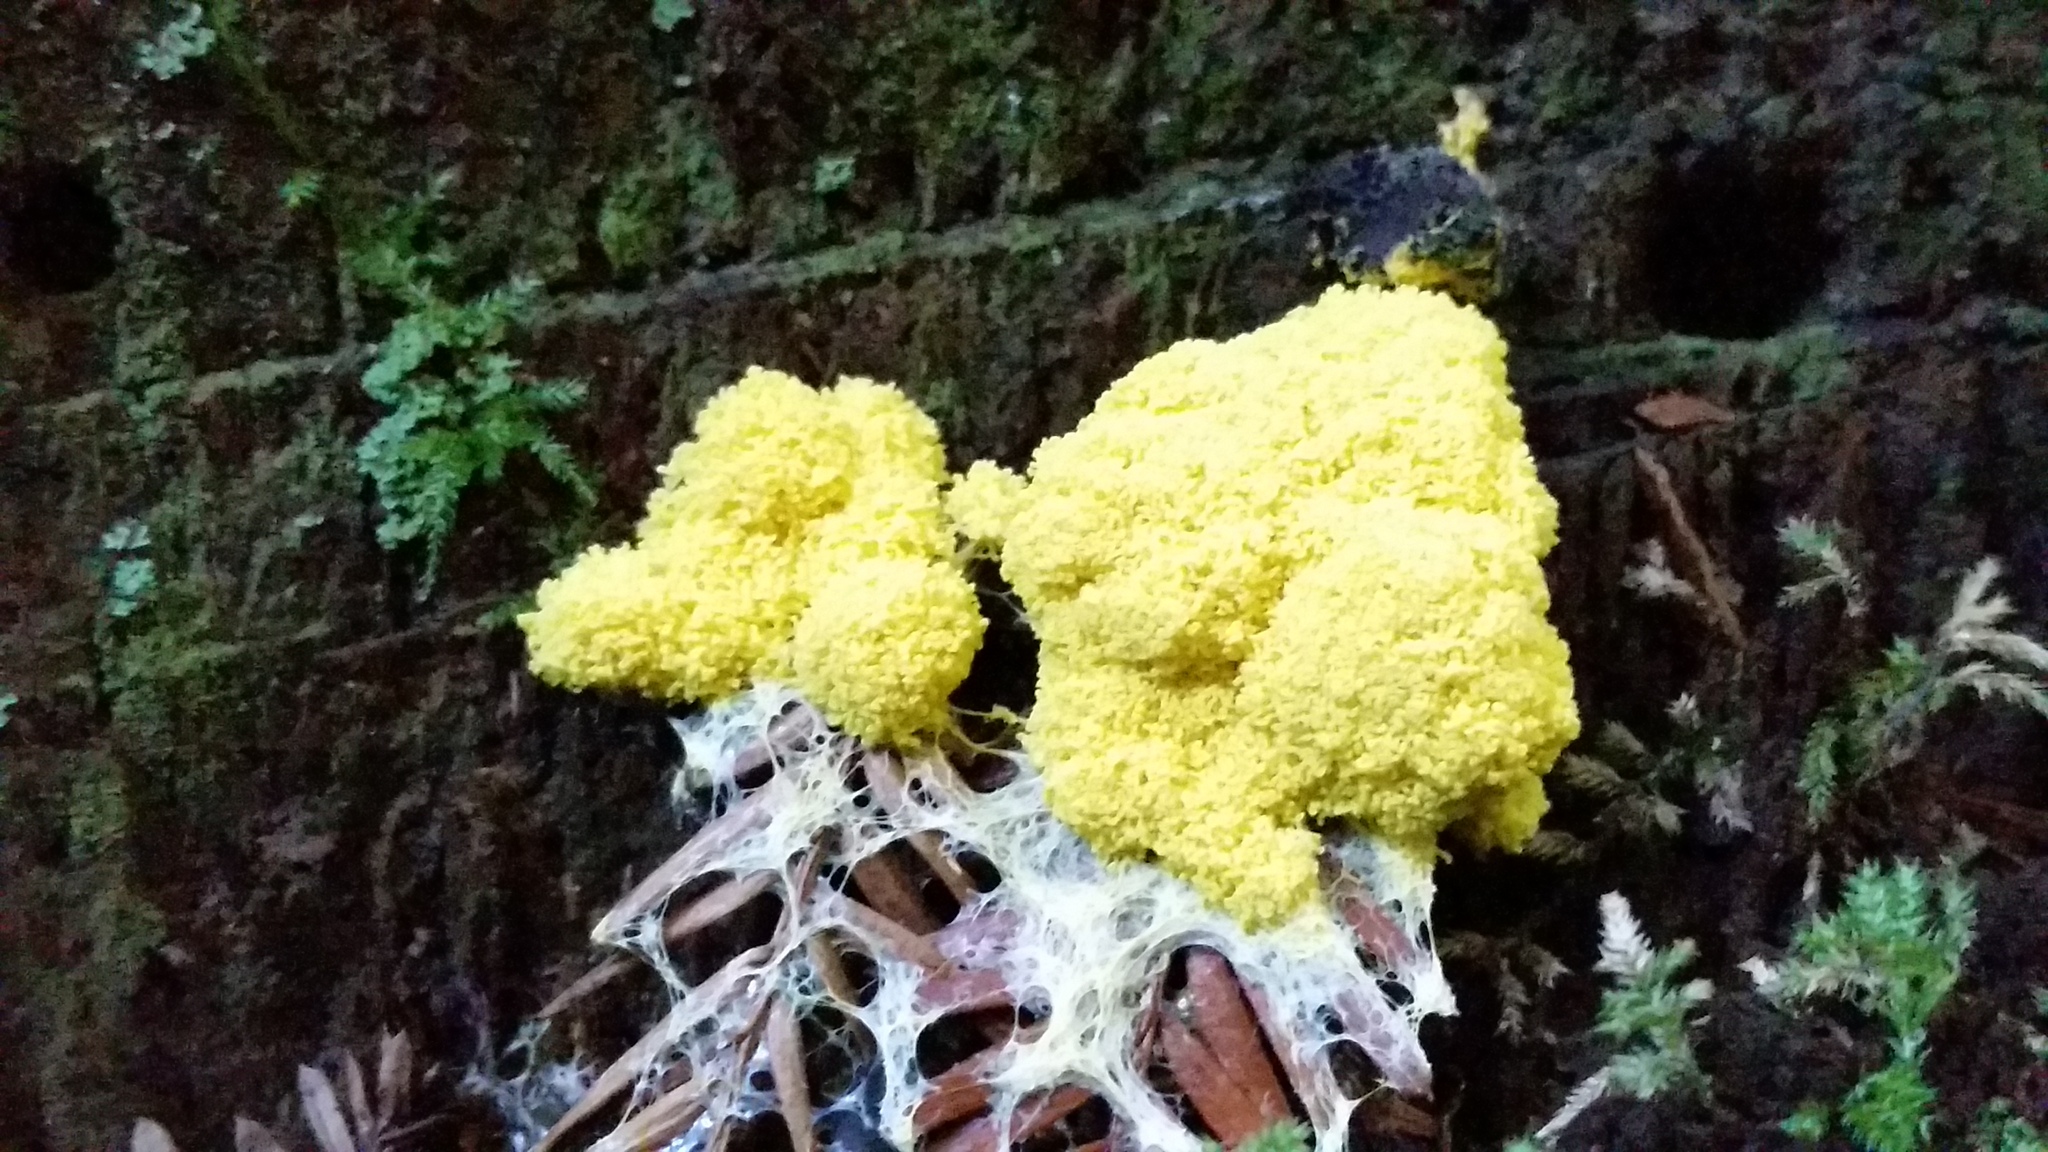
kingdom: Protozoa
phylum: Mycetozoa
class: Myxomycetes
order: Physarales
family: Physaraceae
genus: Fuligo
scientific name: Fuligo septica
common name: Dog vomit slime mold
